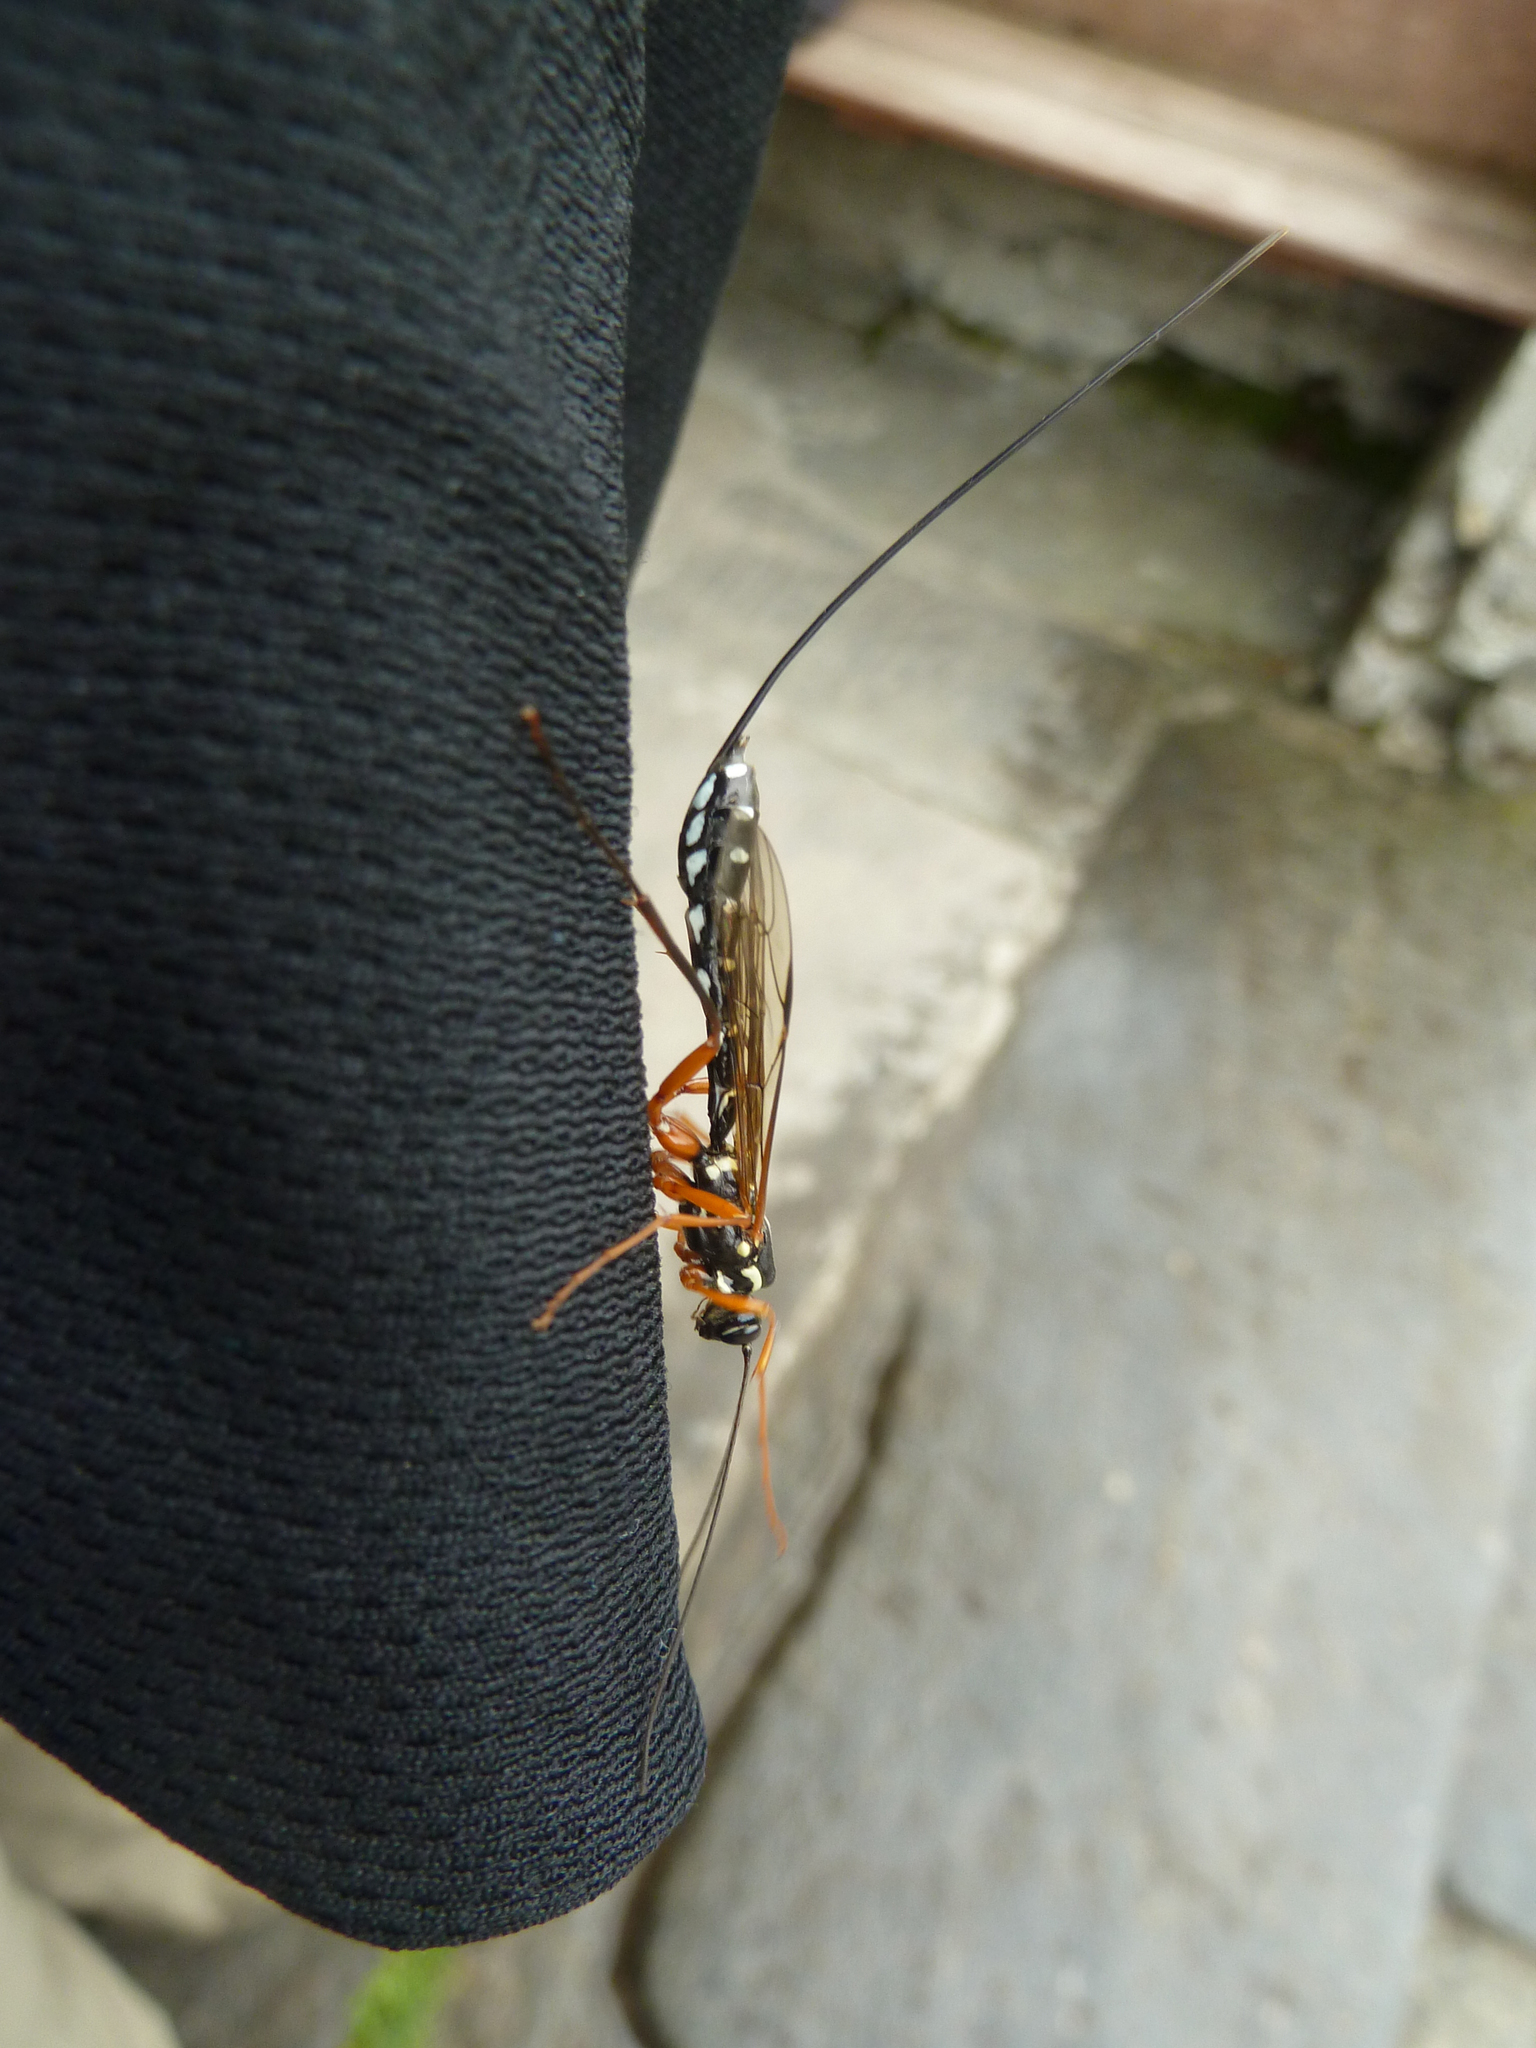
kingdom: Animalia
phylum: Arthropoda
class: Insecta
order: Hymenoptera
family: Ichneumonidae
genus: Rhyssa
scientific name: Rhyssa persuasoria
